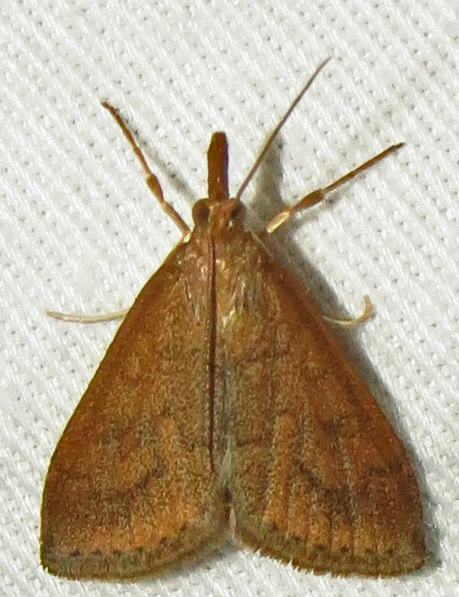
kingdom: Animalia
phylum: Arthropoda
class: Insecta
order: Lepidoptera
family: Crambidae
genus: Udea
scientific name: Udea rubigalis
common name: Celery leaftier moth
